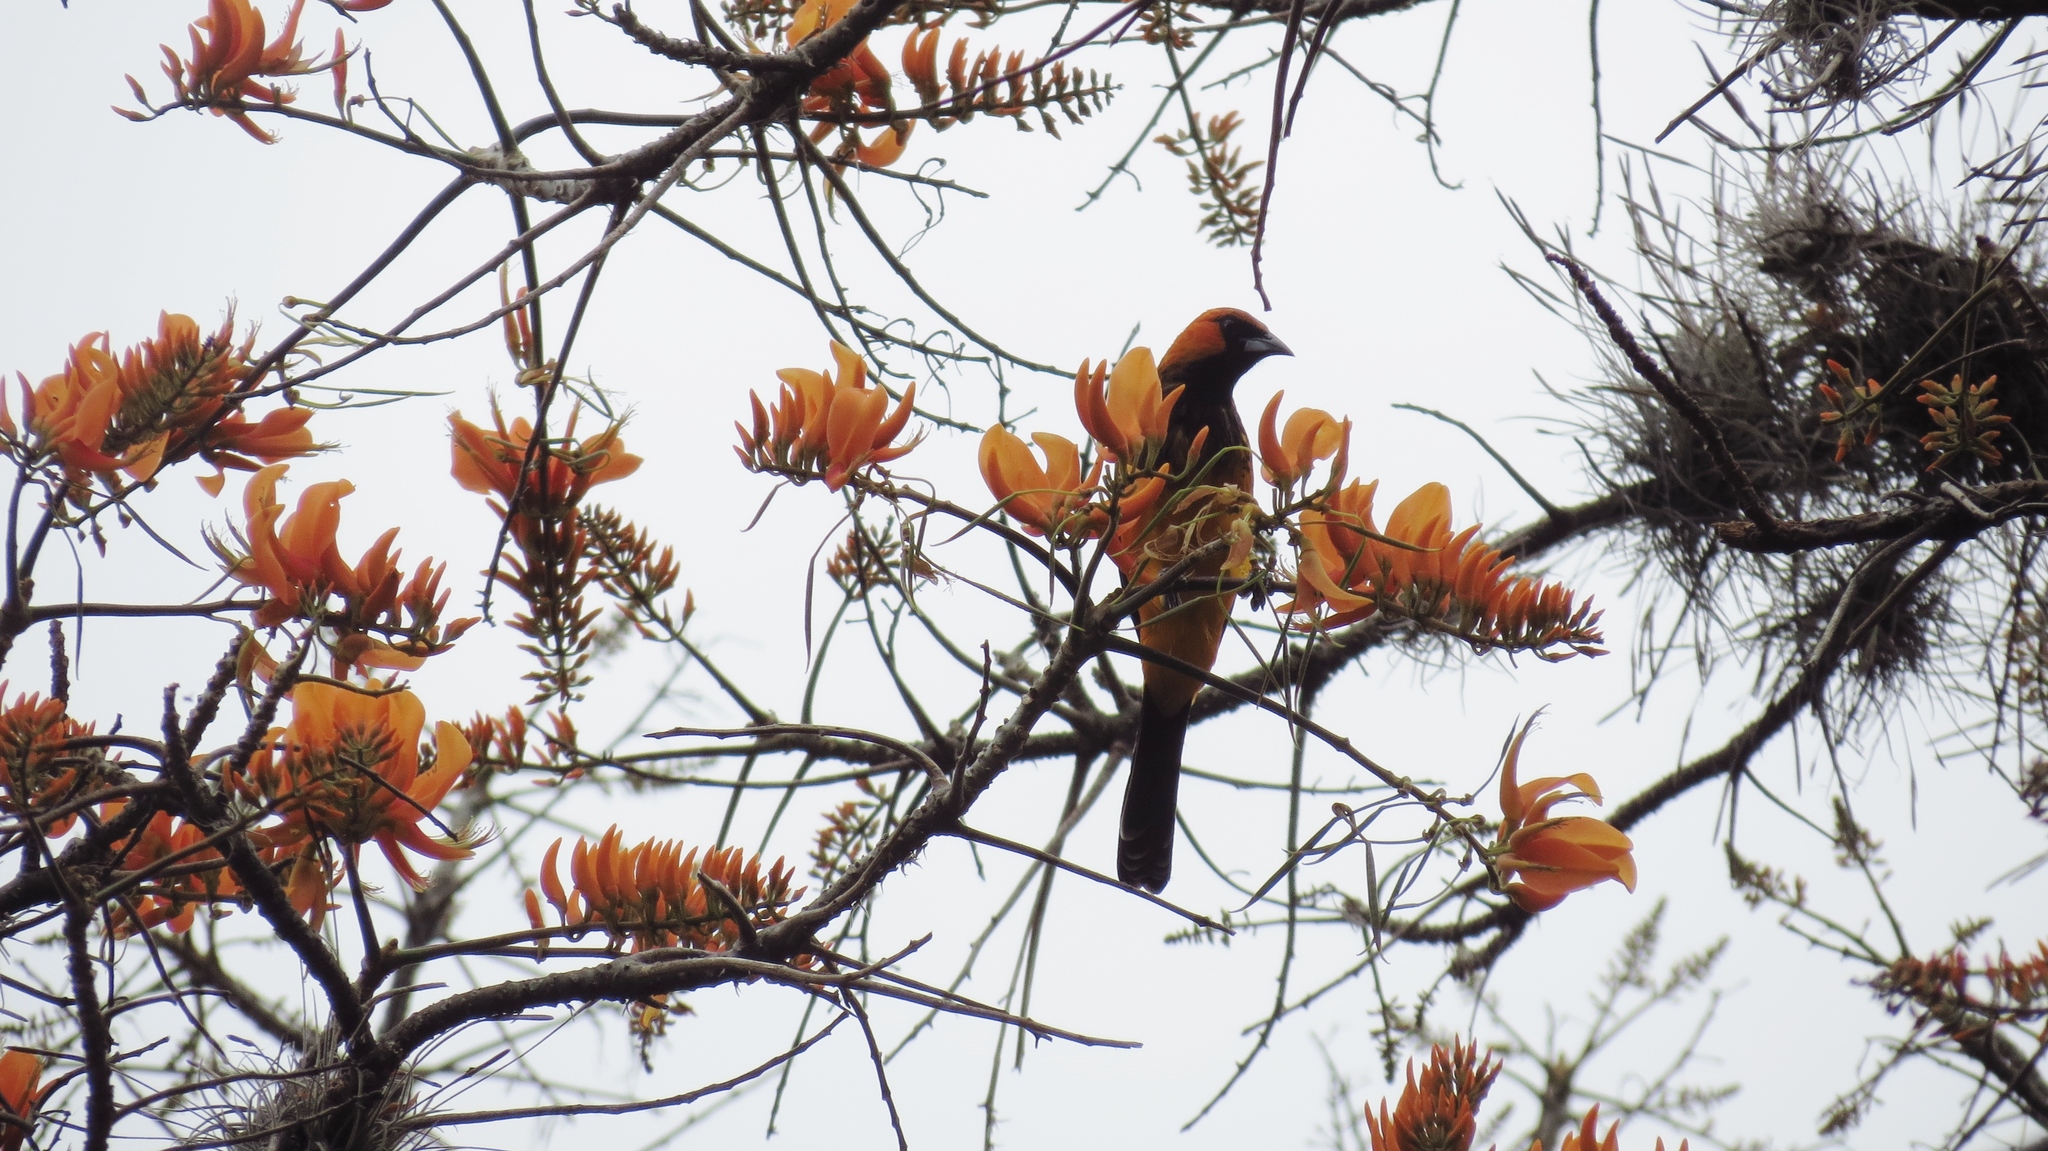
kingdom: Animalia
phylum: Chordata
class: Aves
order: Passeriformes
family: Icteridae
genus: Icterus
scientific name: Icterus pectoralis
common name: Spot-breasted oriole
